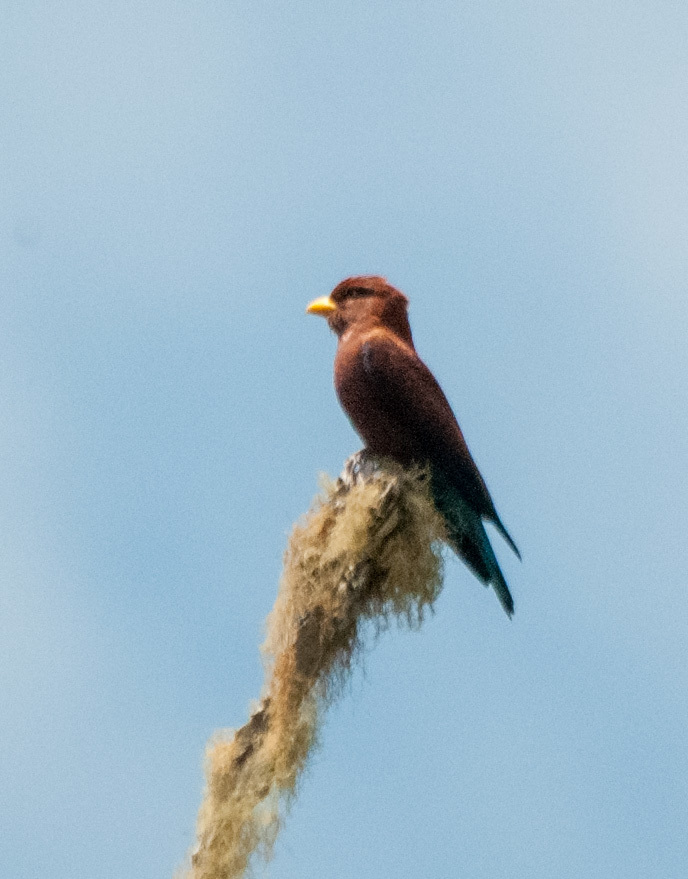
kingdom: Animalia
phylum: Chordata
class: Aves
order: Coraciiformes
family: Coraciidae
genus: Eurystomus
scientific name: Eurystomus glaucurus
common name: Broad-billed roller
